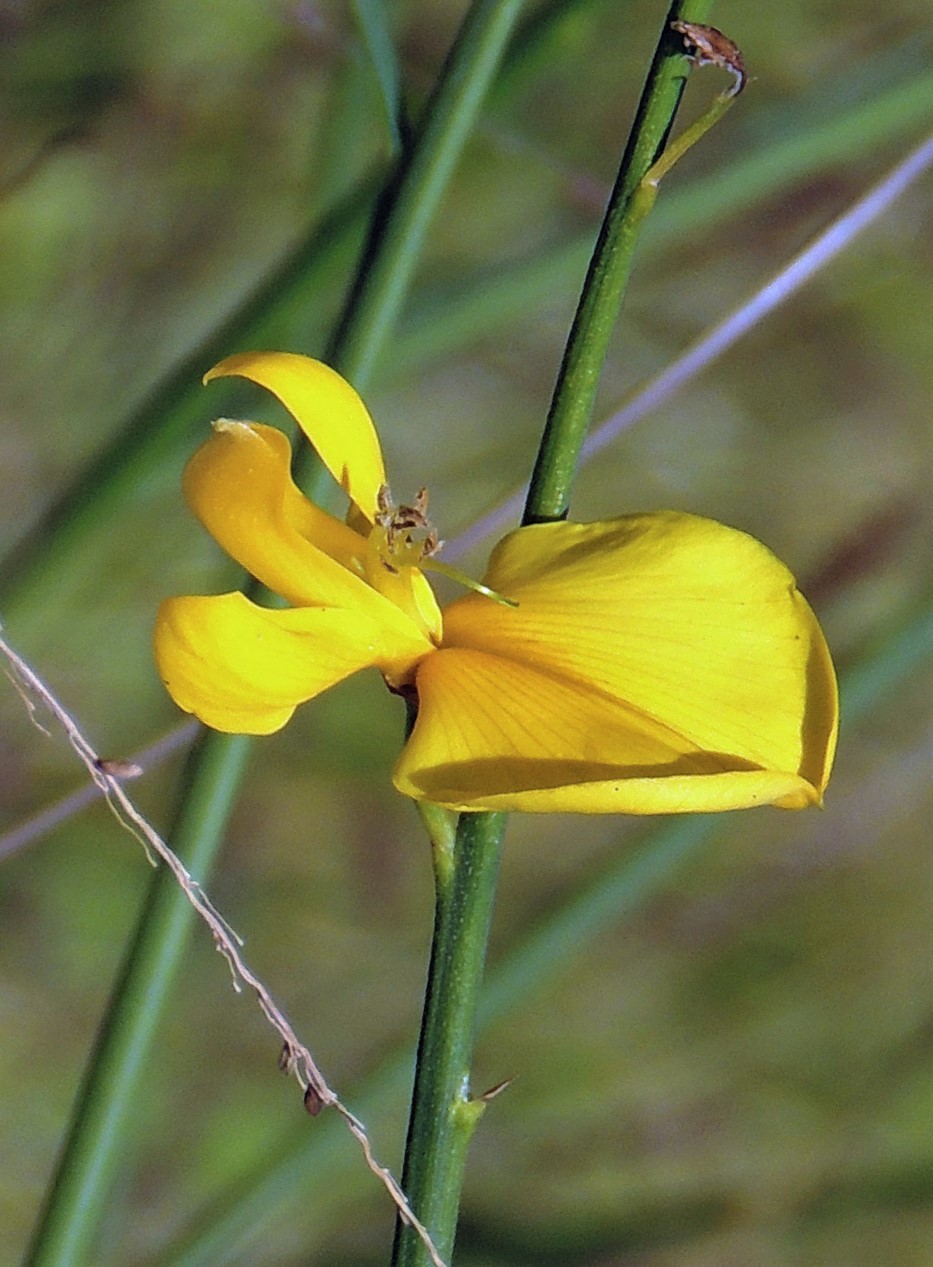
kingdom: Plantae
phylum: Tracheophyta
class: Magnoliopsida
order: Fabales
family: Fabaceae
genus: Spartium
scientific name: Spartium junceum
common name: Spanish broom
